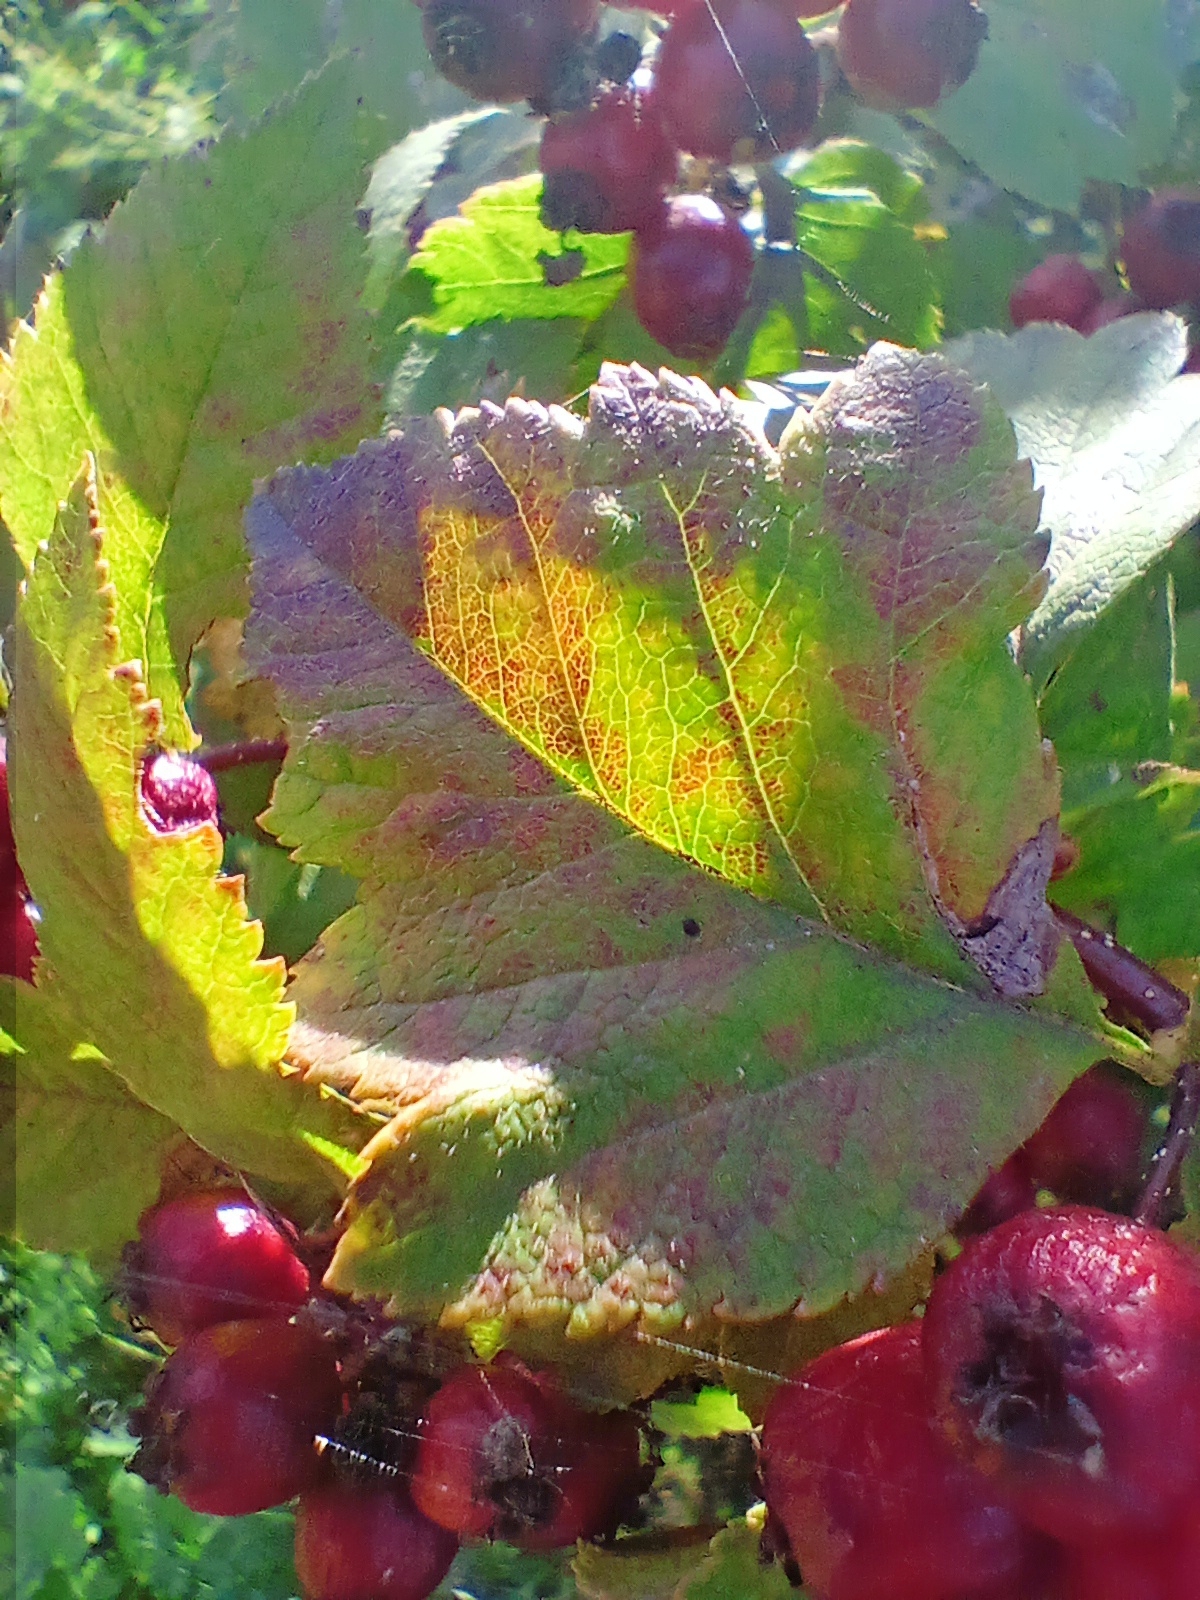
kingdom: Plantae
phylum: Tracheophyta
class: Magnoliopsida
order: Rosales
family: Rosaceae
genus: Crataegus
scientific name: Crataegus sanguinea
